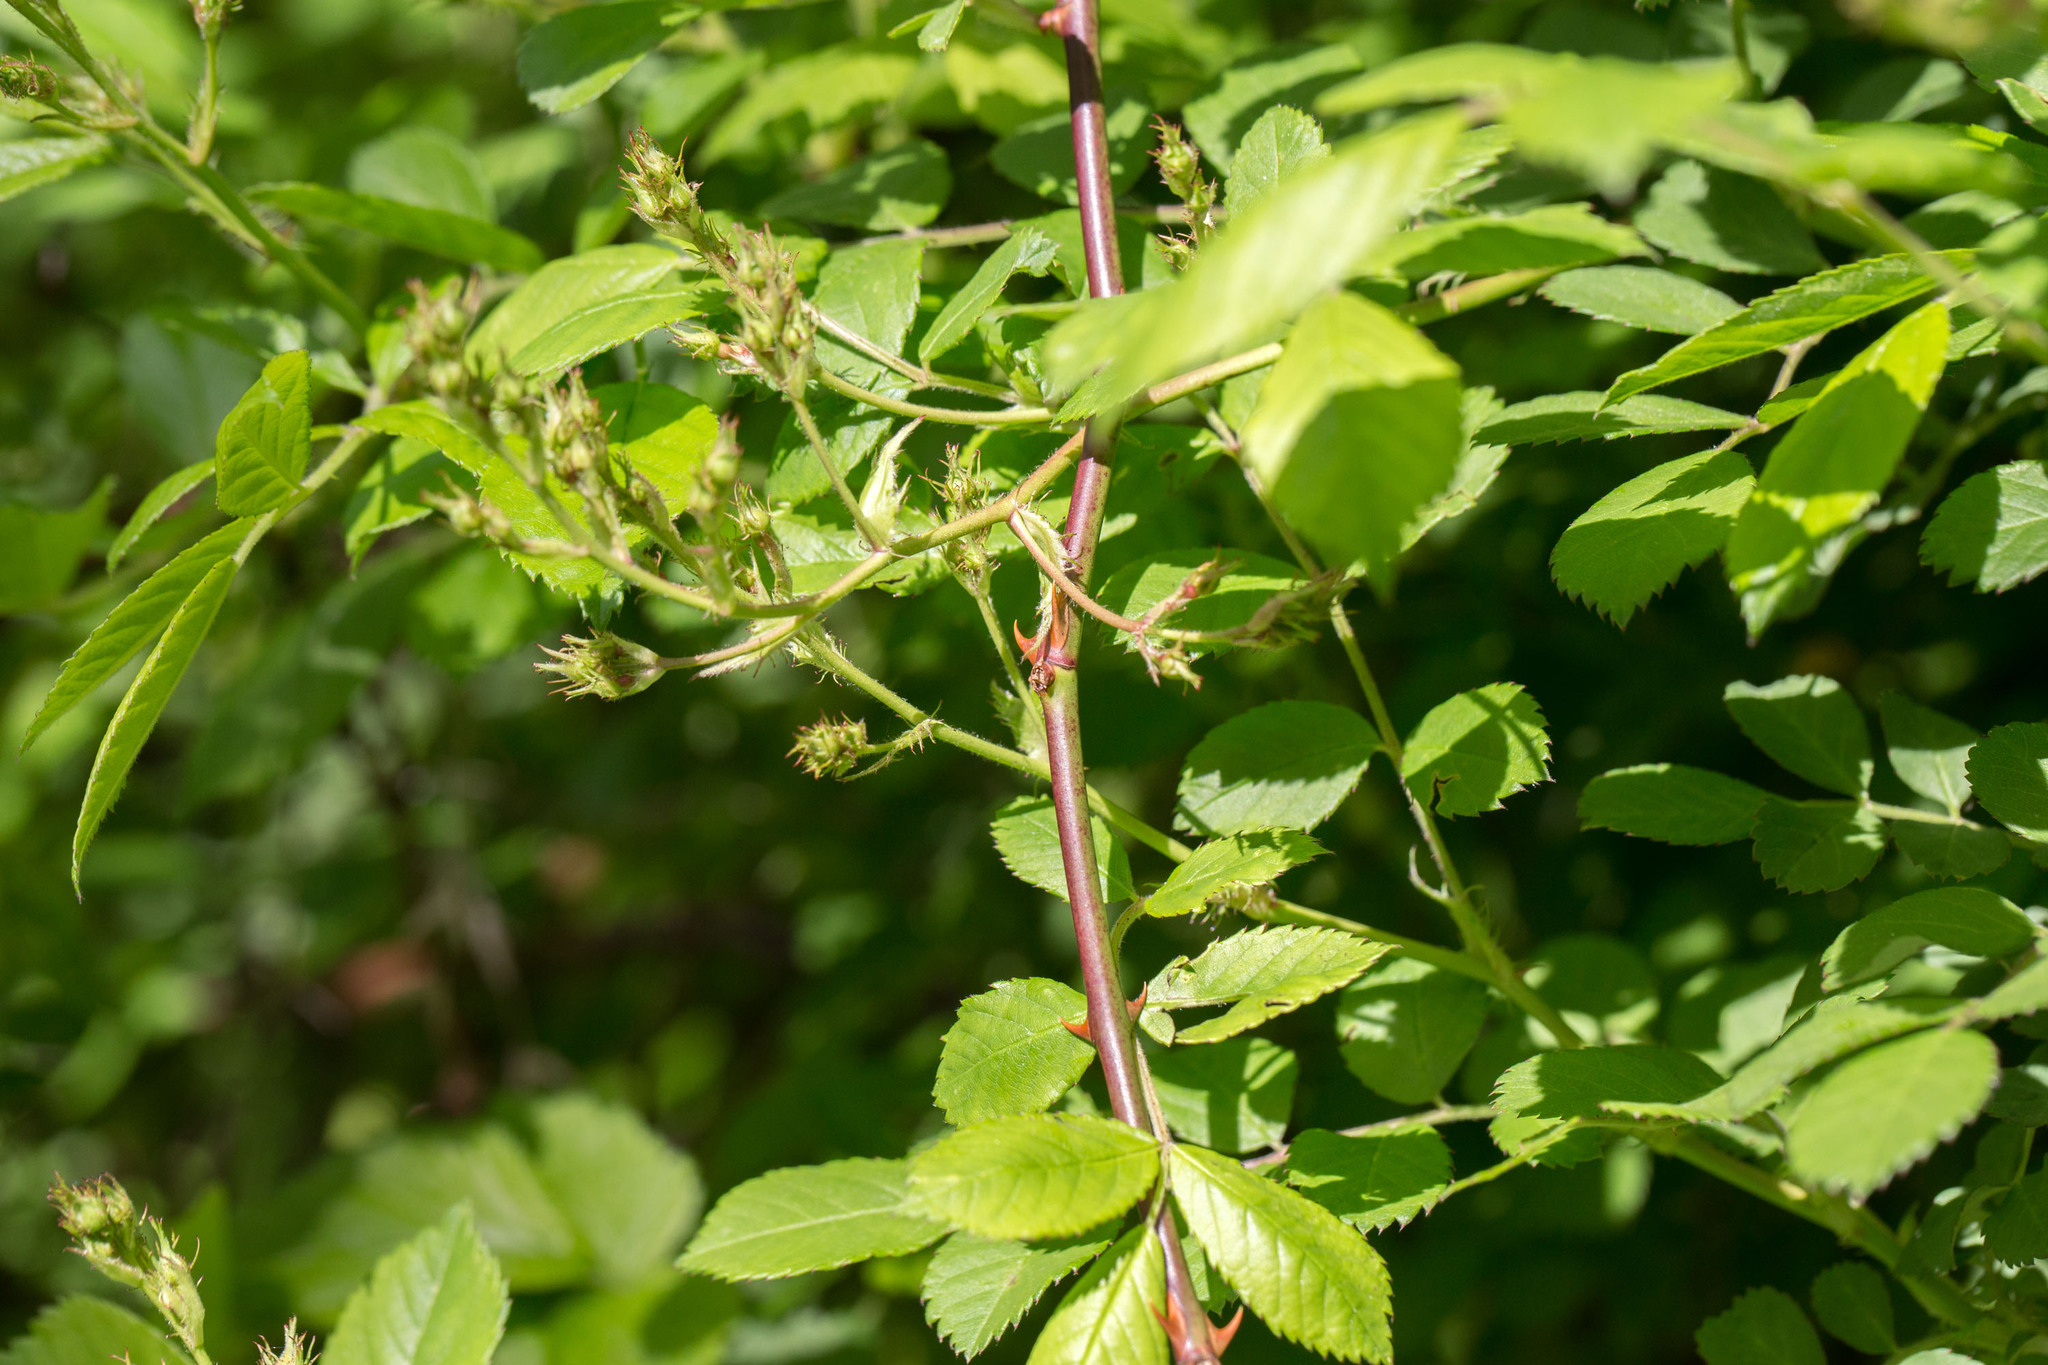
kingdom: Plantae
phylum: Tracheophyta
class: Magnoliopsida
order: Rosales
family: Rosaceae
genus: Rosa
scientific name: Rosa multiflora
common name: Multiflora rose
